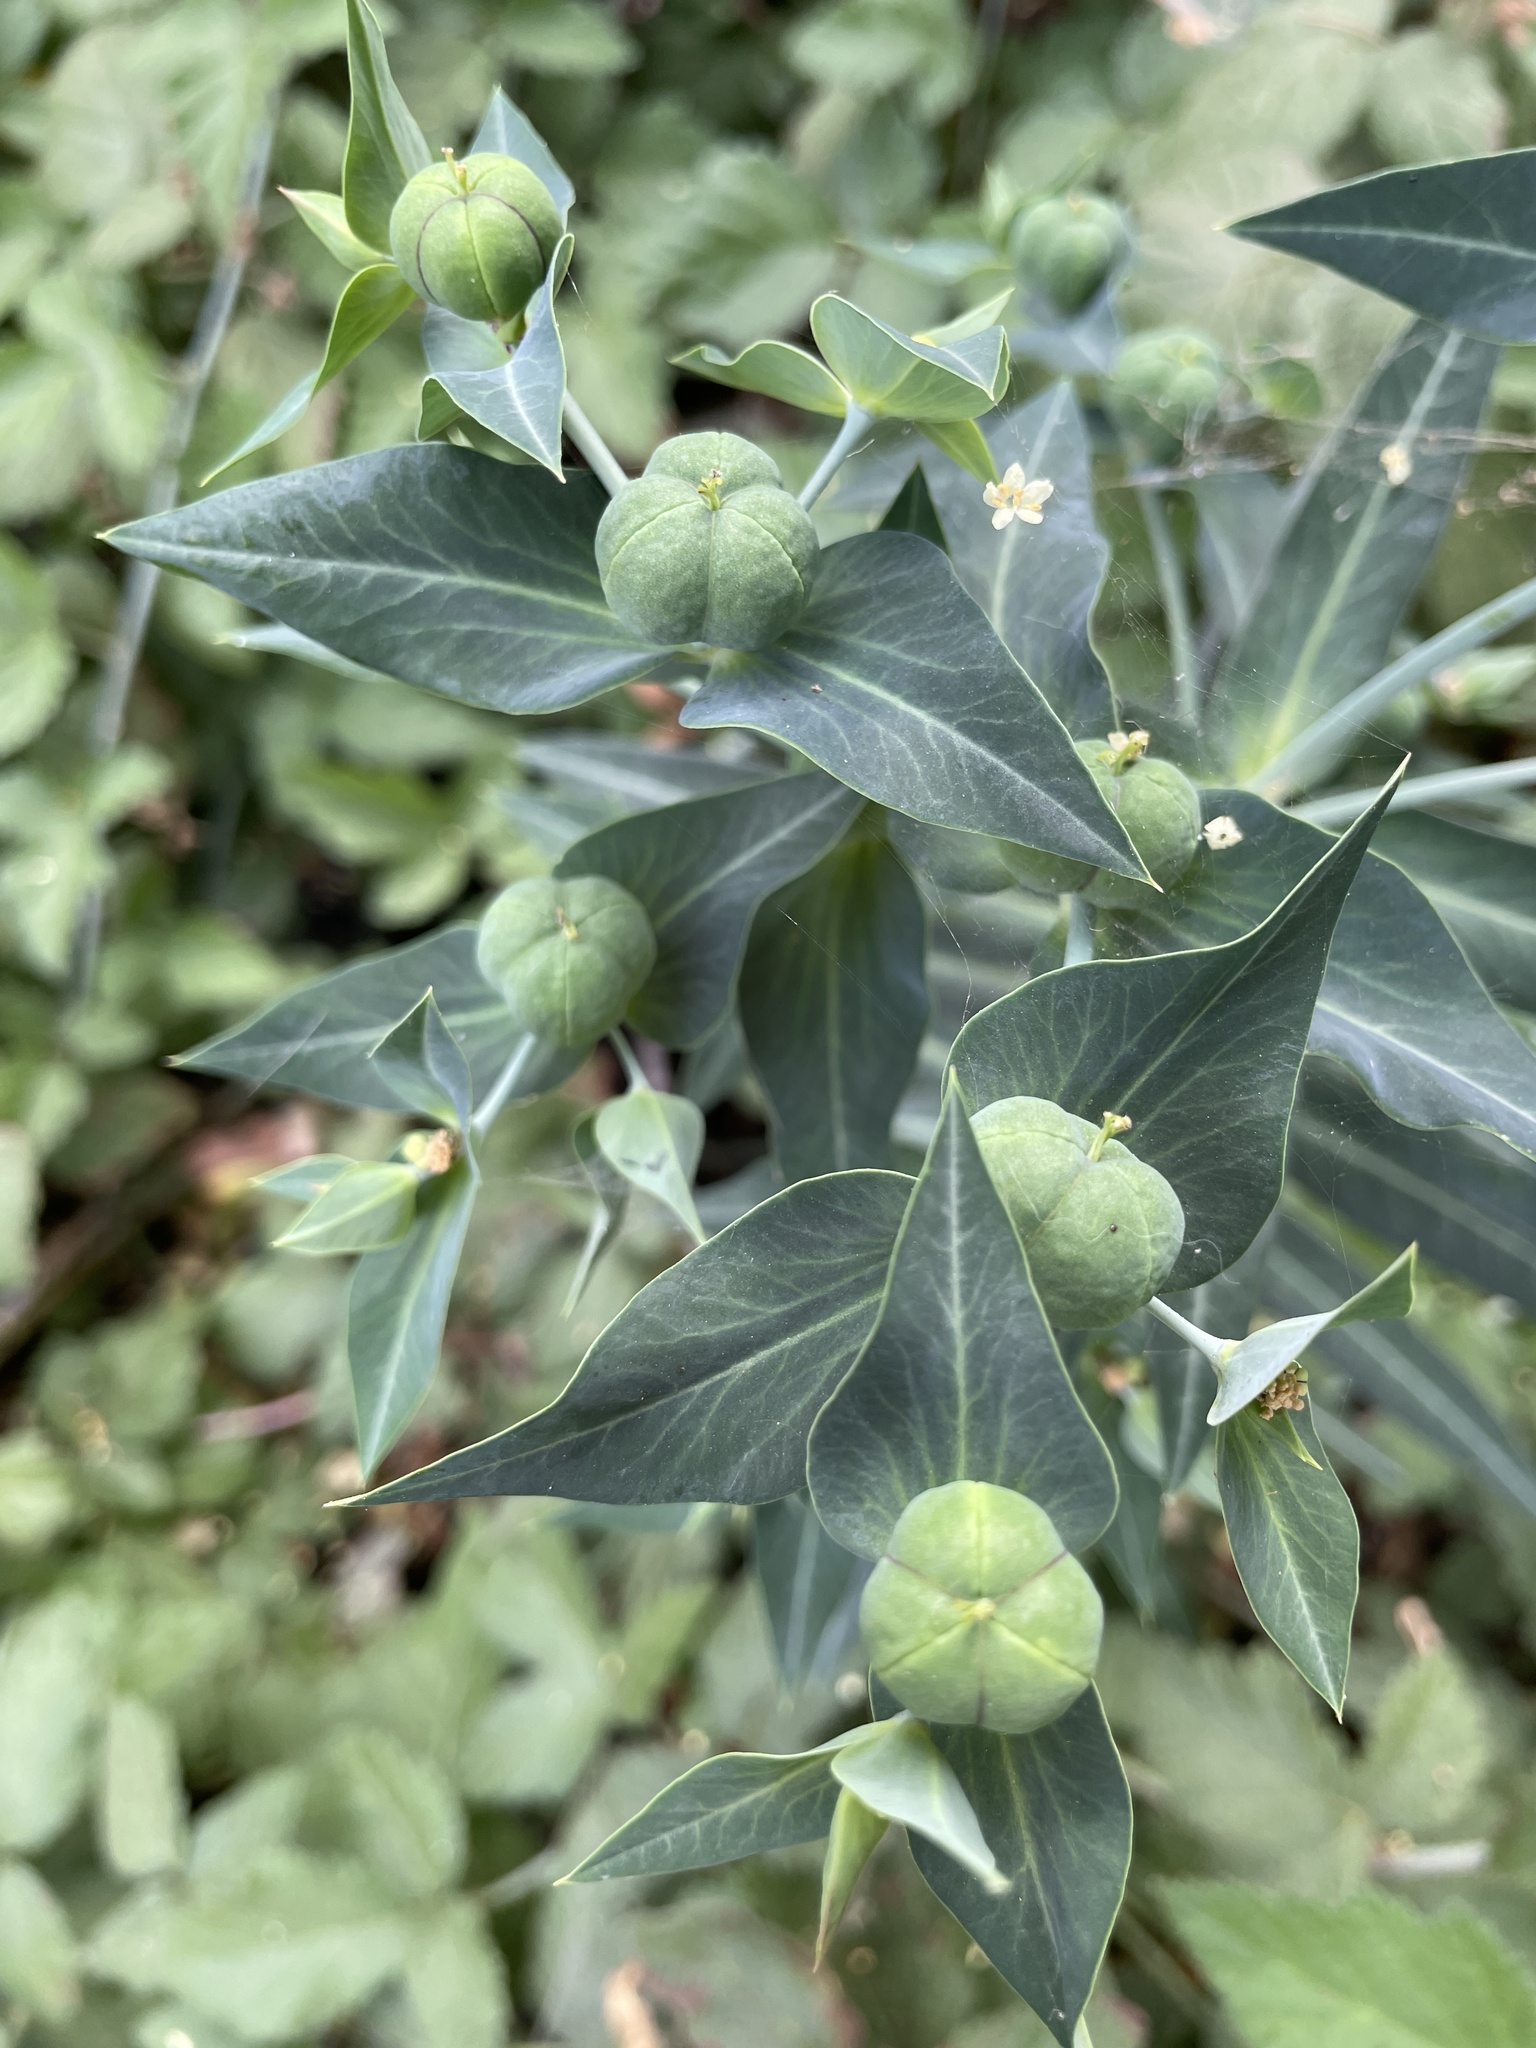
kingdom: Plantae
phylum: Tracheophyta
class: Magnoliopsida
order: Malpighiales
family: Euphorbiaceae
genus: Euphorbia
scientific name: Euphorbia lathyris
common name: Caper spurge
